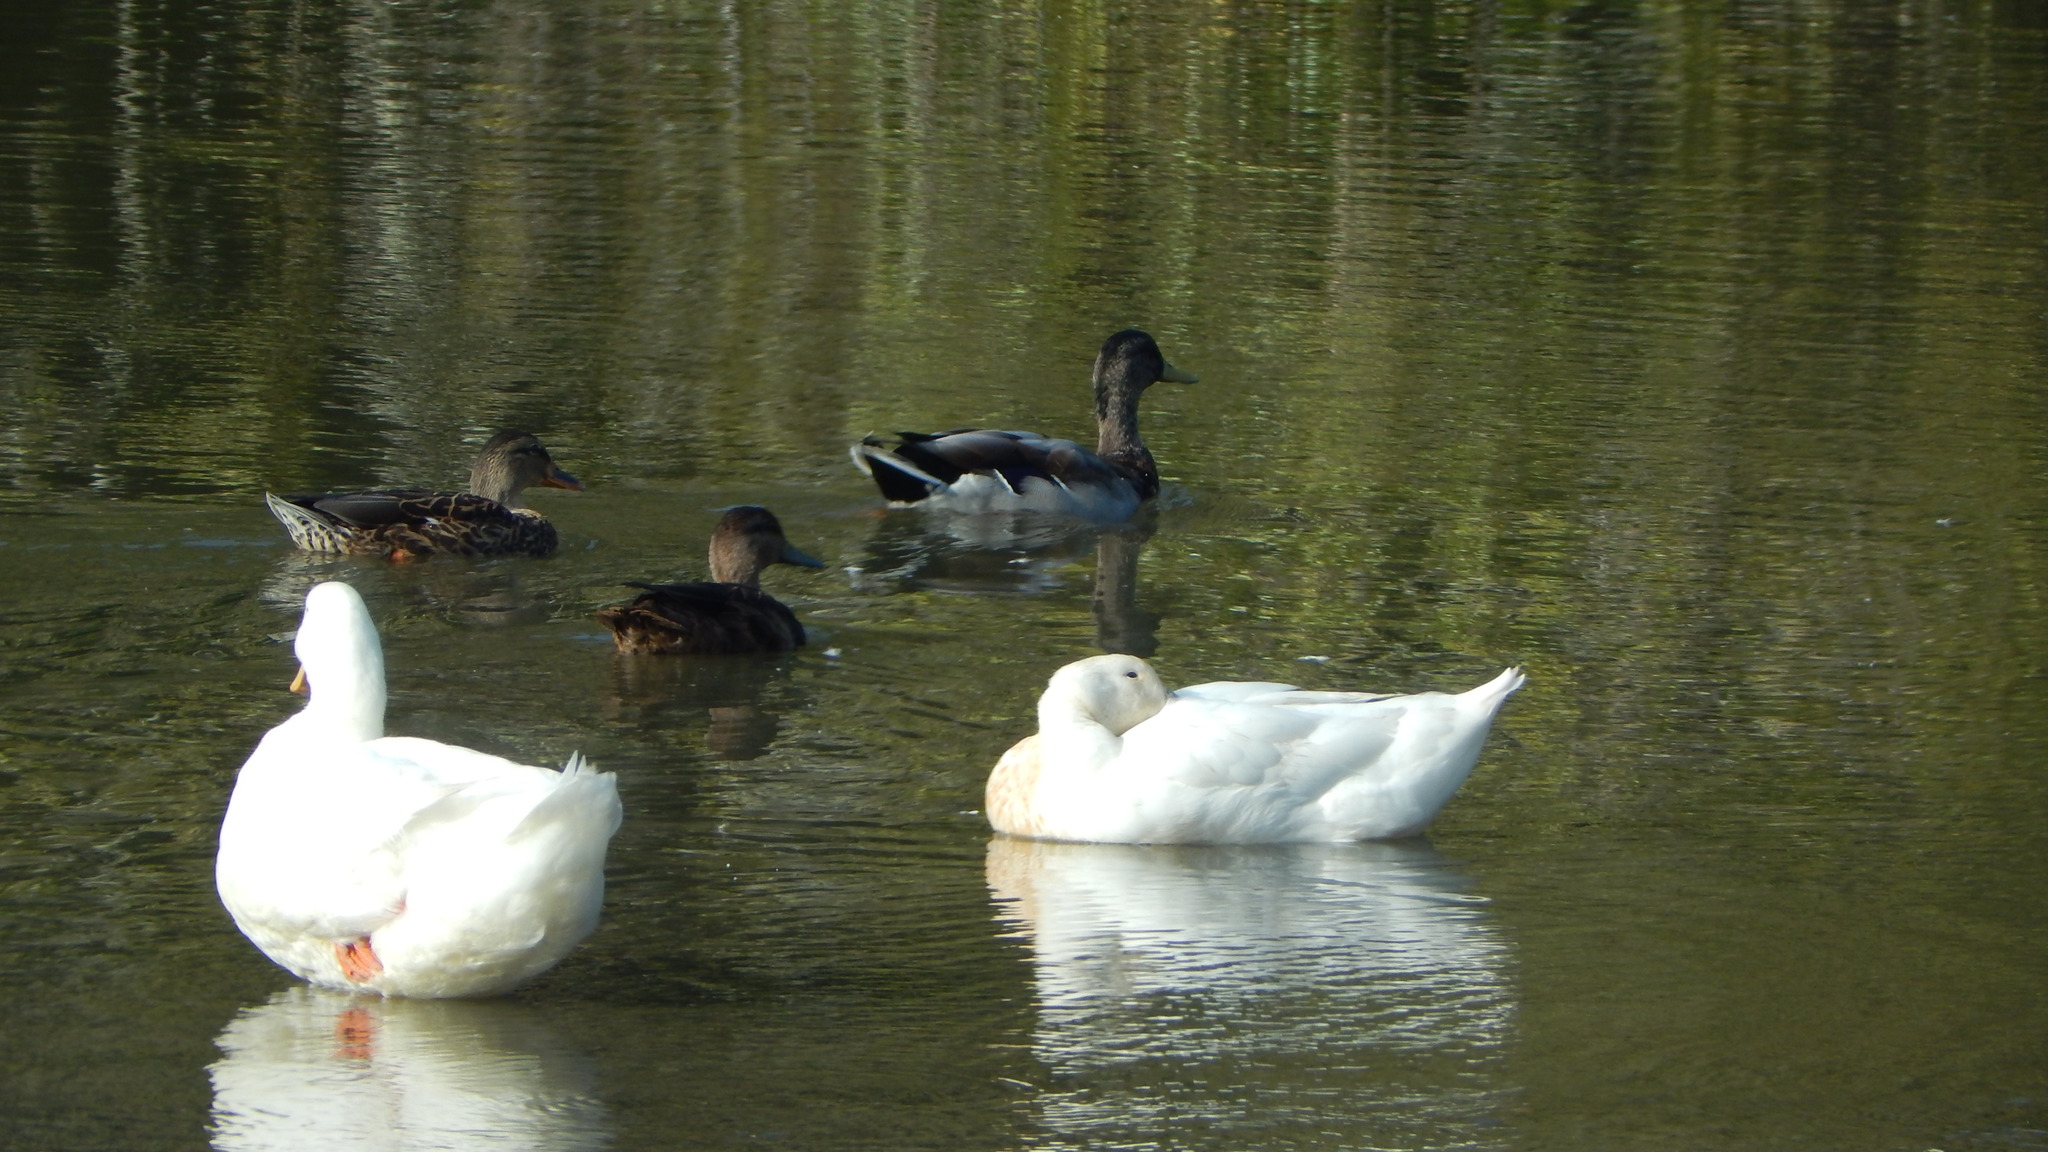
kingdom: Animalia
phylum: Chordata
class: Aves
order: Anseriformes
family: Anatidae
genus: Anas
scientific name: Anas platyrhynchos
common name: Mallard
